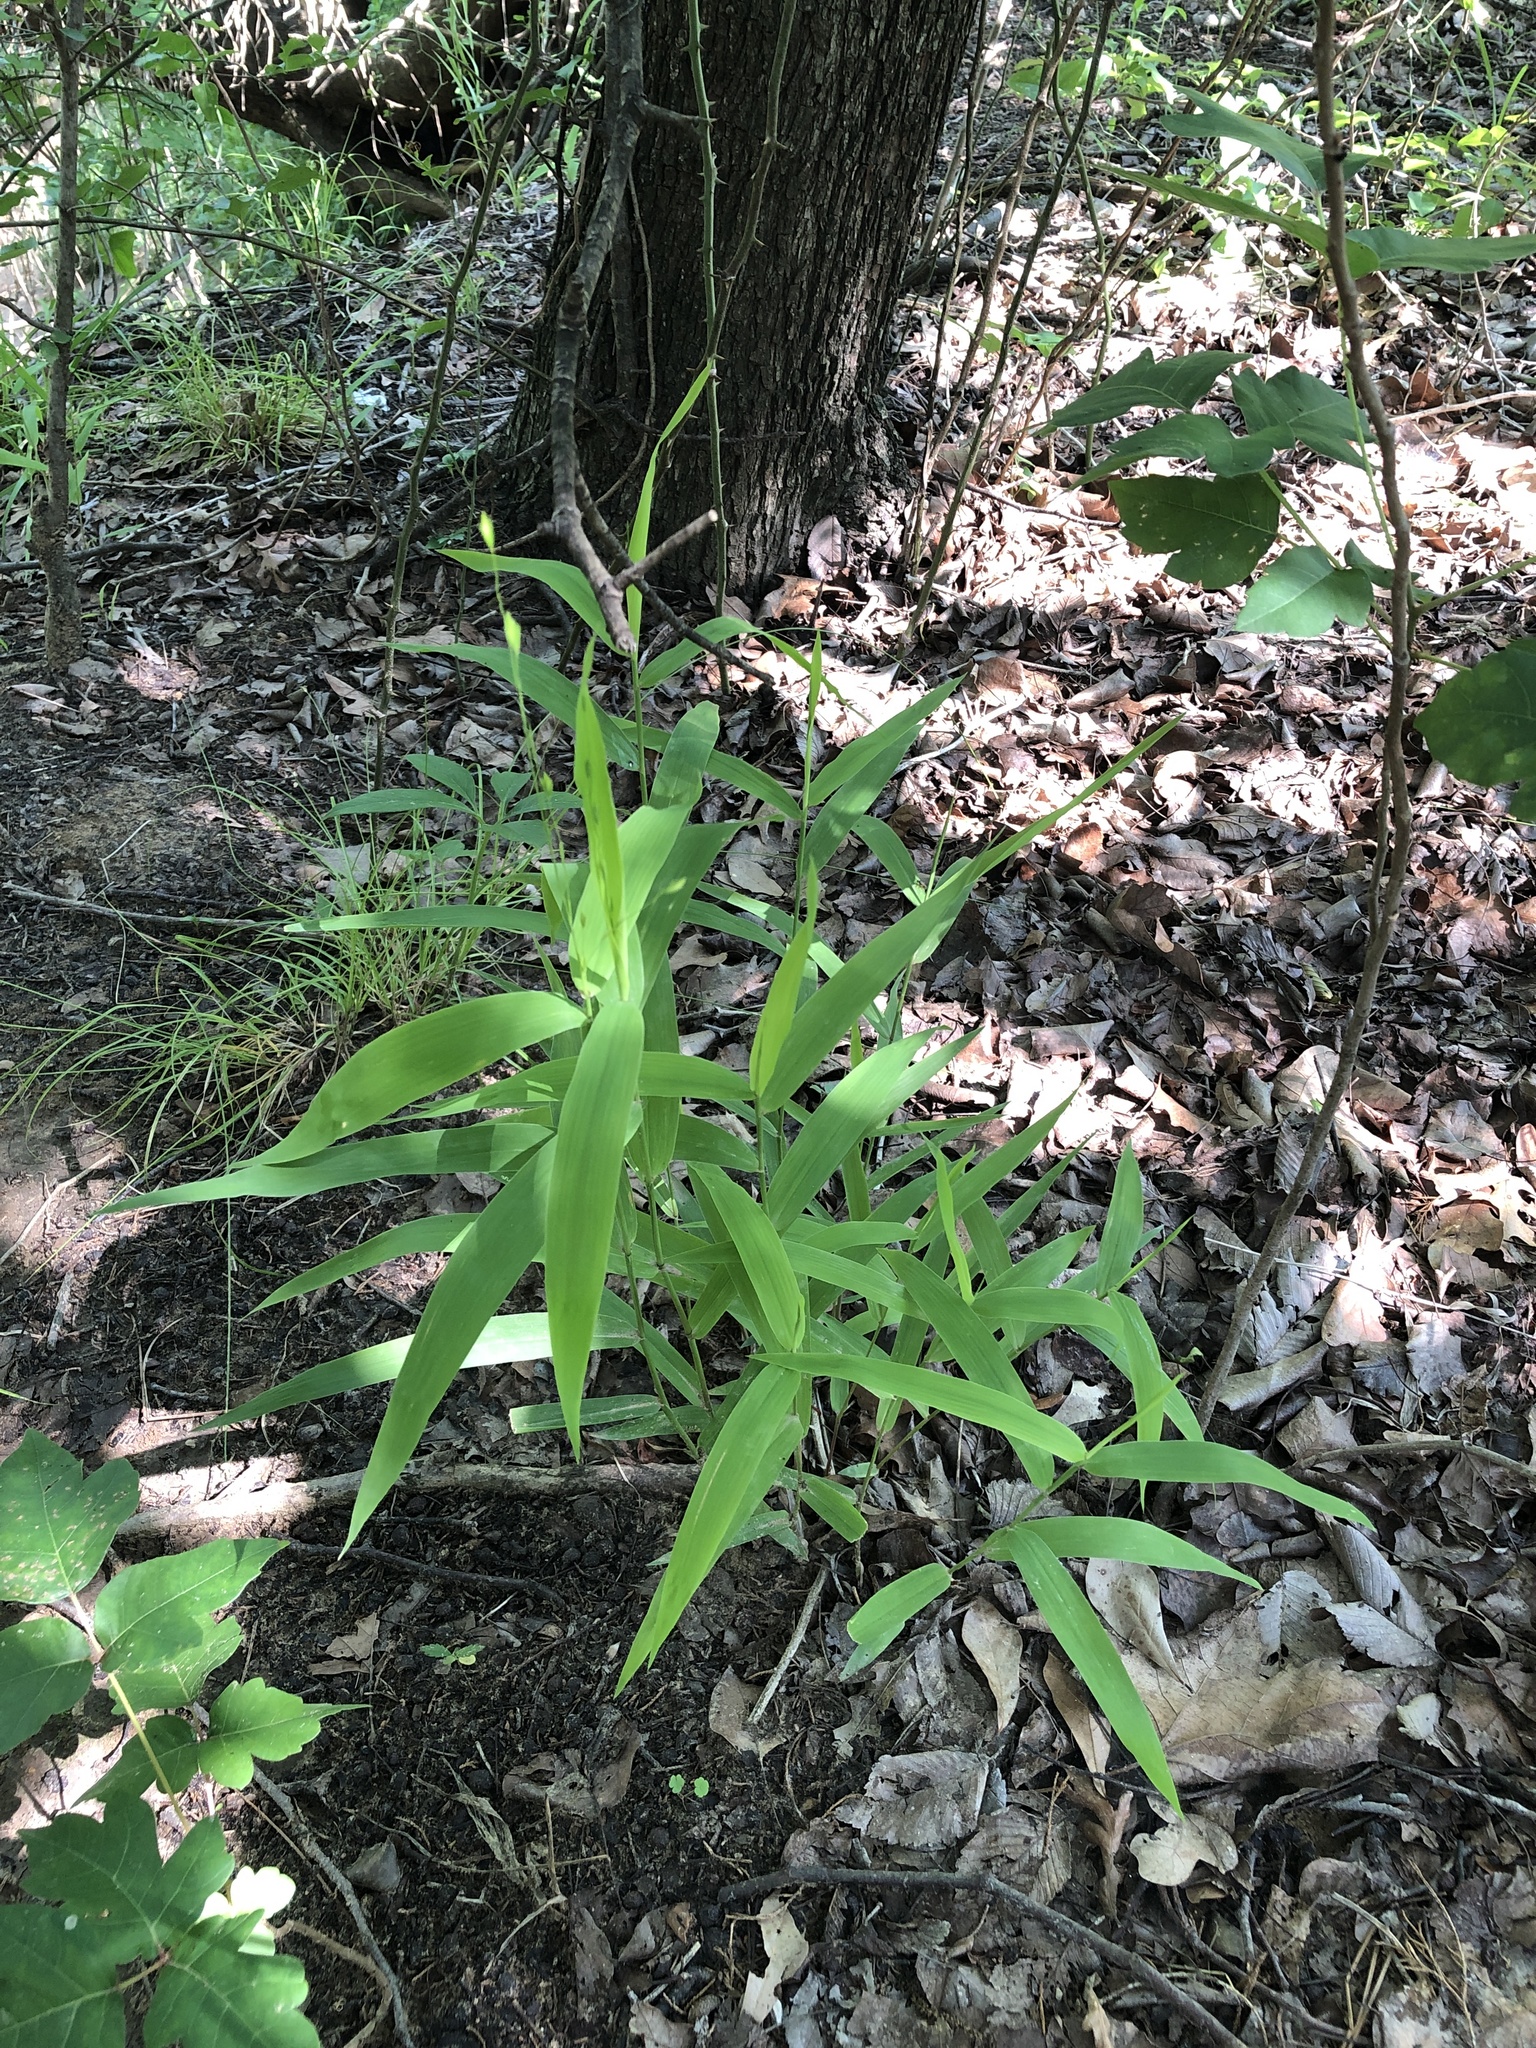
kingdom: Plantae
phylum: Tracheophyta
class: Liliopsida
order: Poales
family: Poaceae
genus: Chasmanthium
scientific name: Chasmanthium latifolium
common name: Broad-leaved chasmanthium
